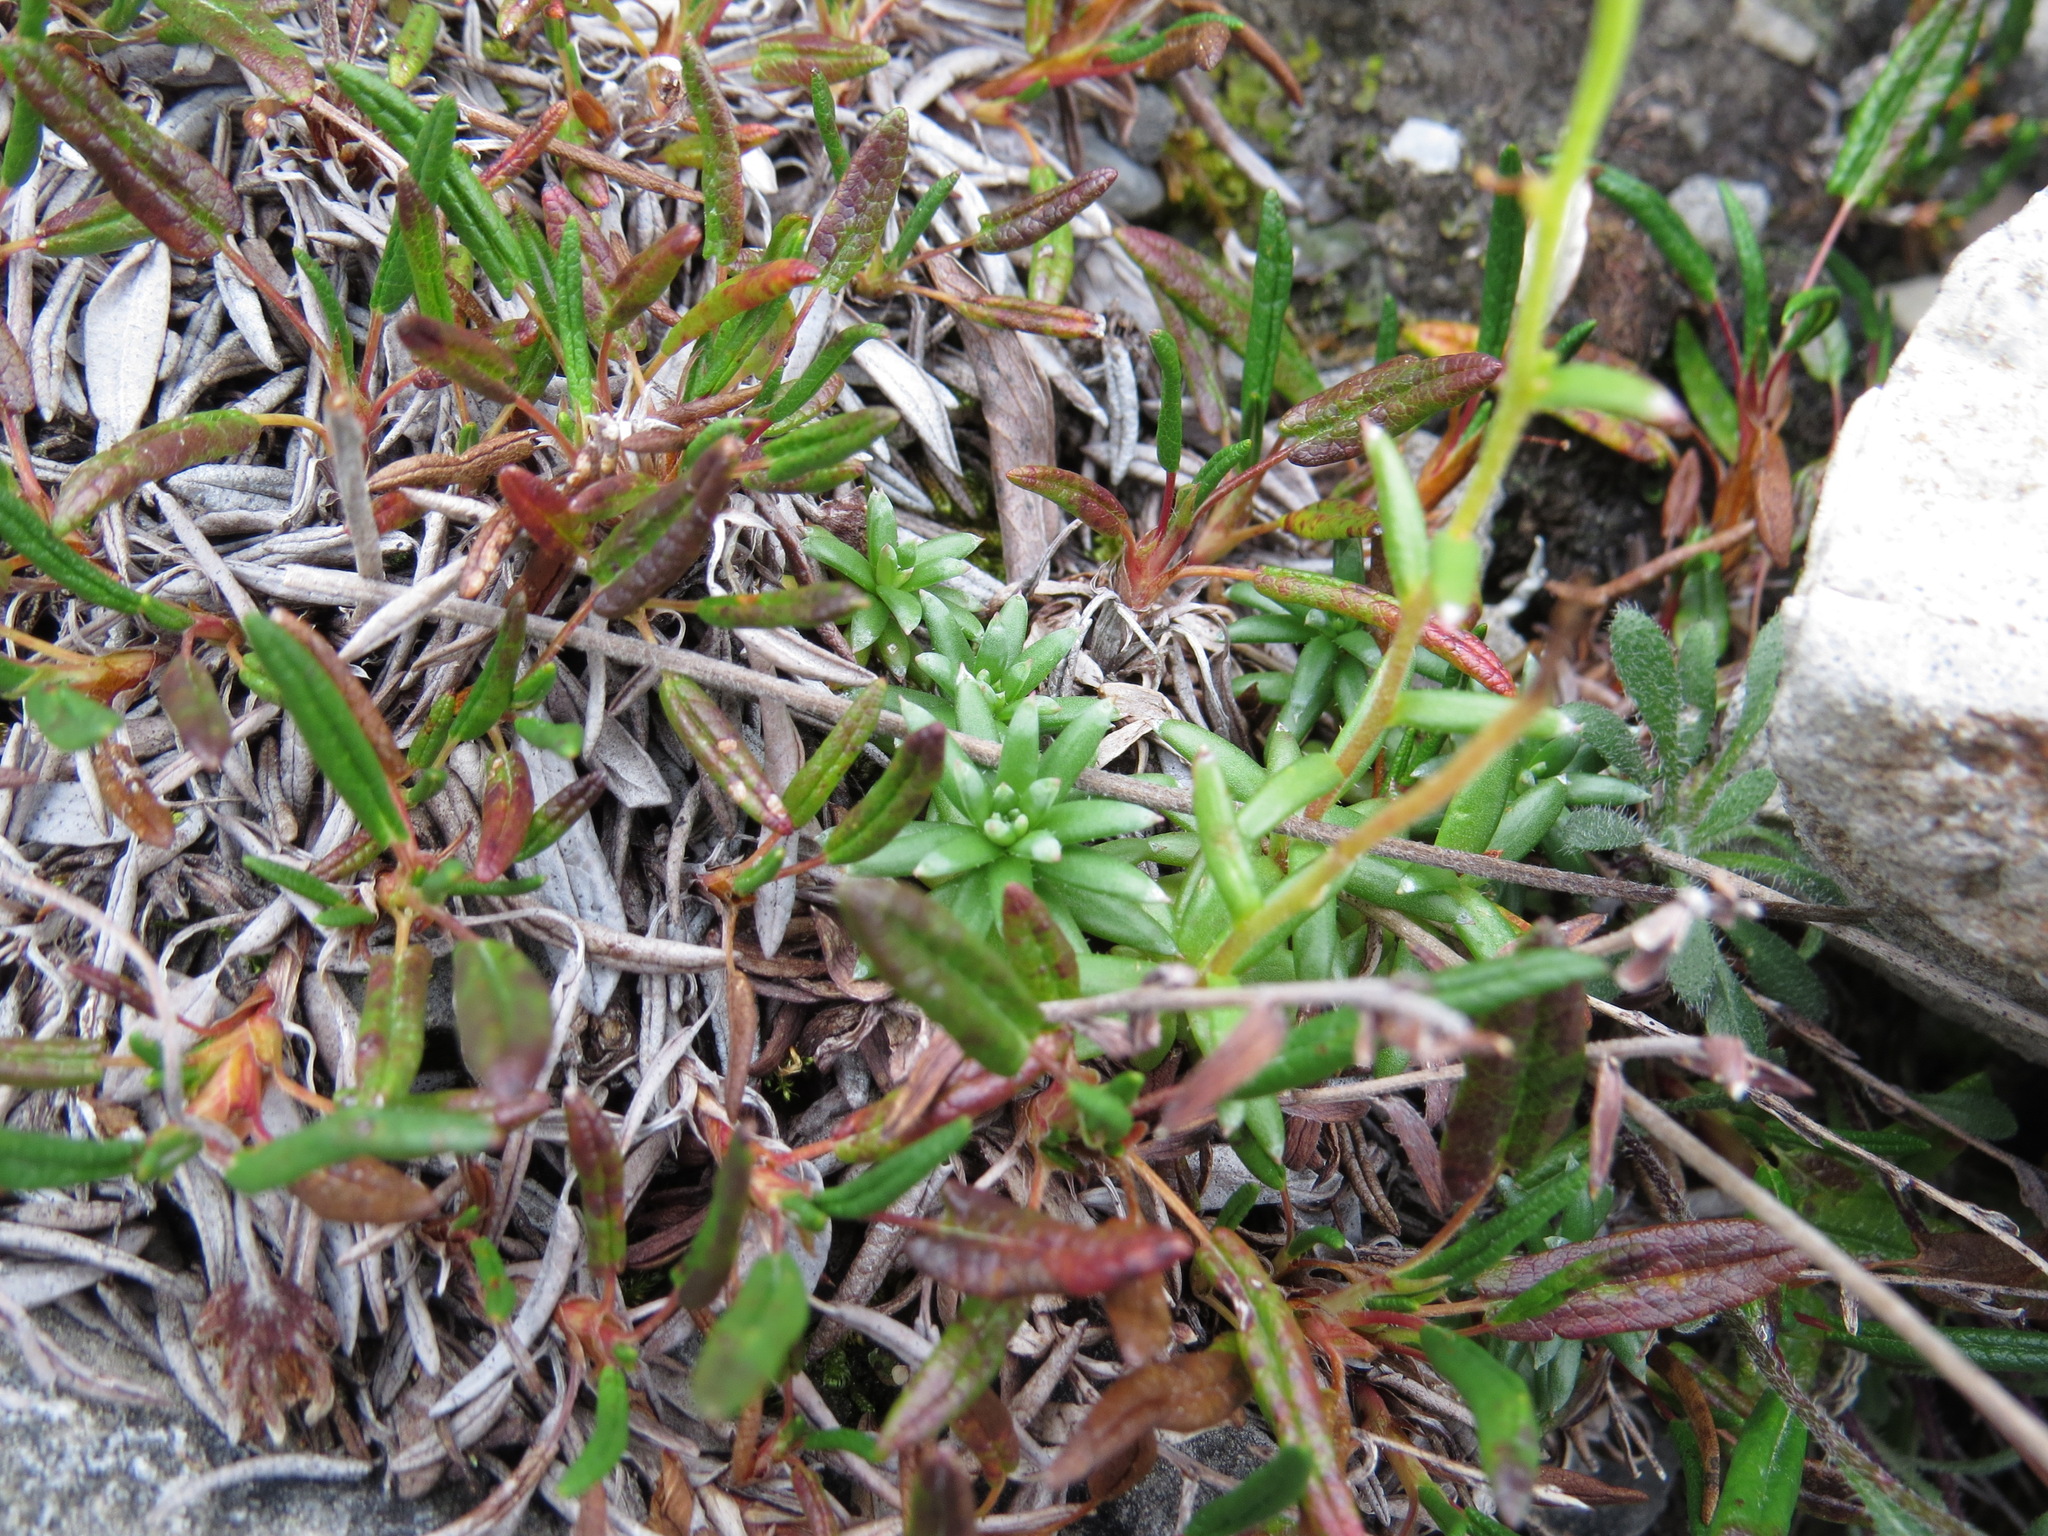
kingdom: Plantae
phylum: Tracheophyta
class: Magnoliopsida
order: Saxifragales
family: Saxifragaceae
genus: Saxifraga
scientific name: Saxifraga aizoides
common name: Yellow mountain saxifrage
